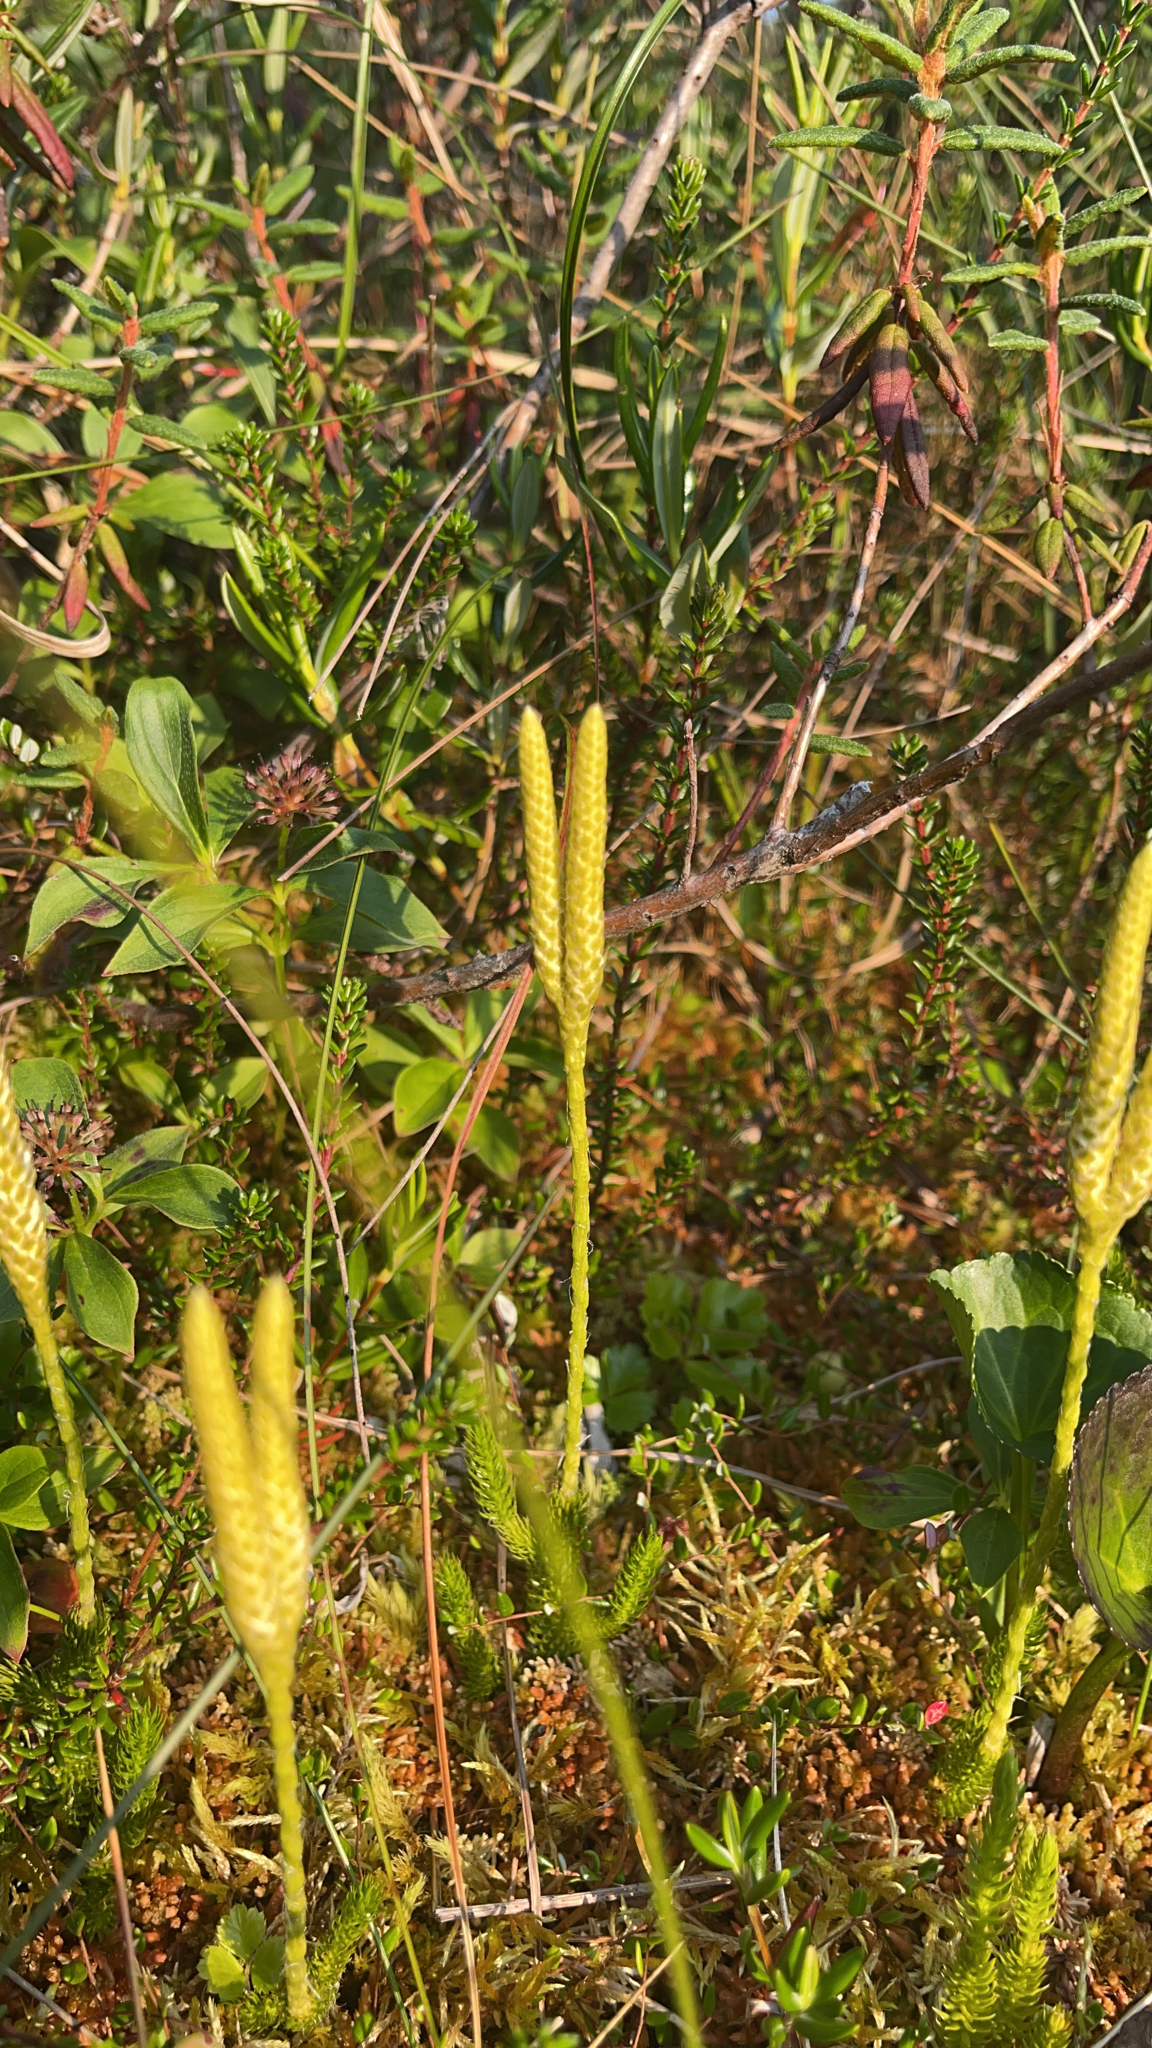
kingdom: Plantae
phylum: Tracheophyta
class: Lycopodiopsida
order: Lycopodiales
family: Lycopodiaceae
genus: Lycopodium
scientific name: Lycopodium clavatum
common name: Stag's-horn clubmoss
